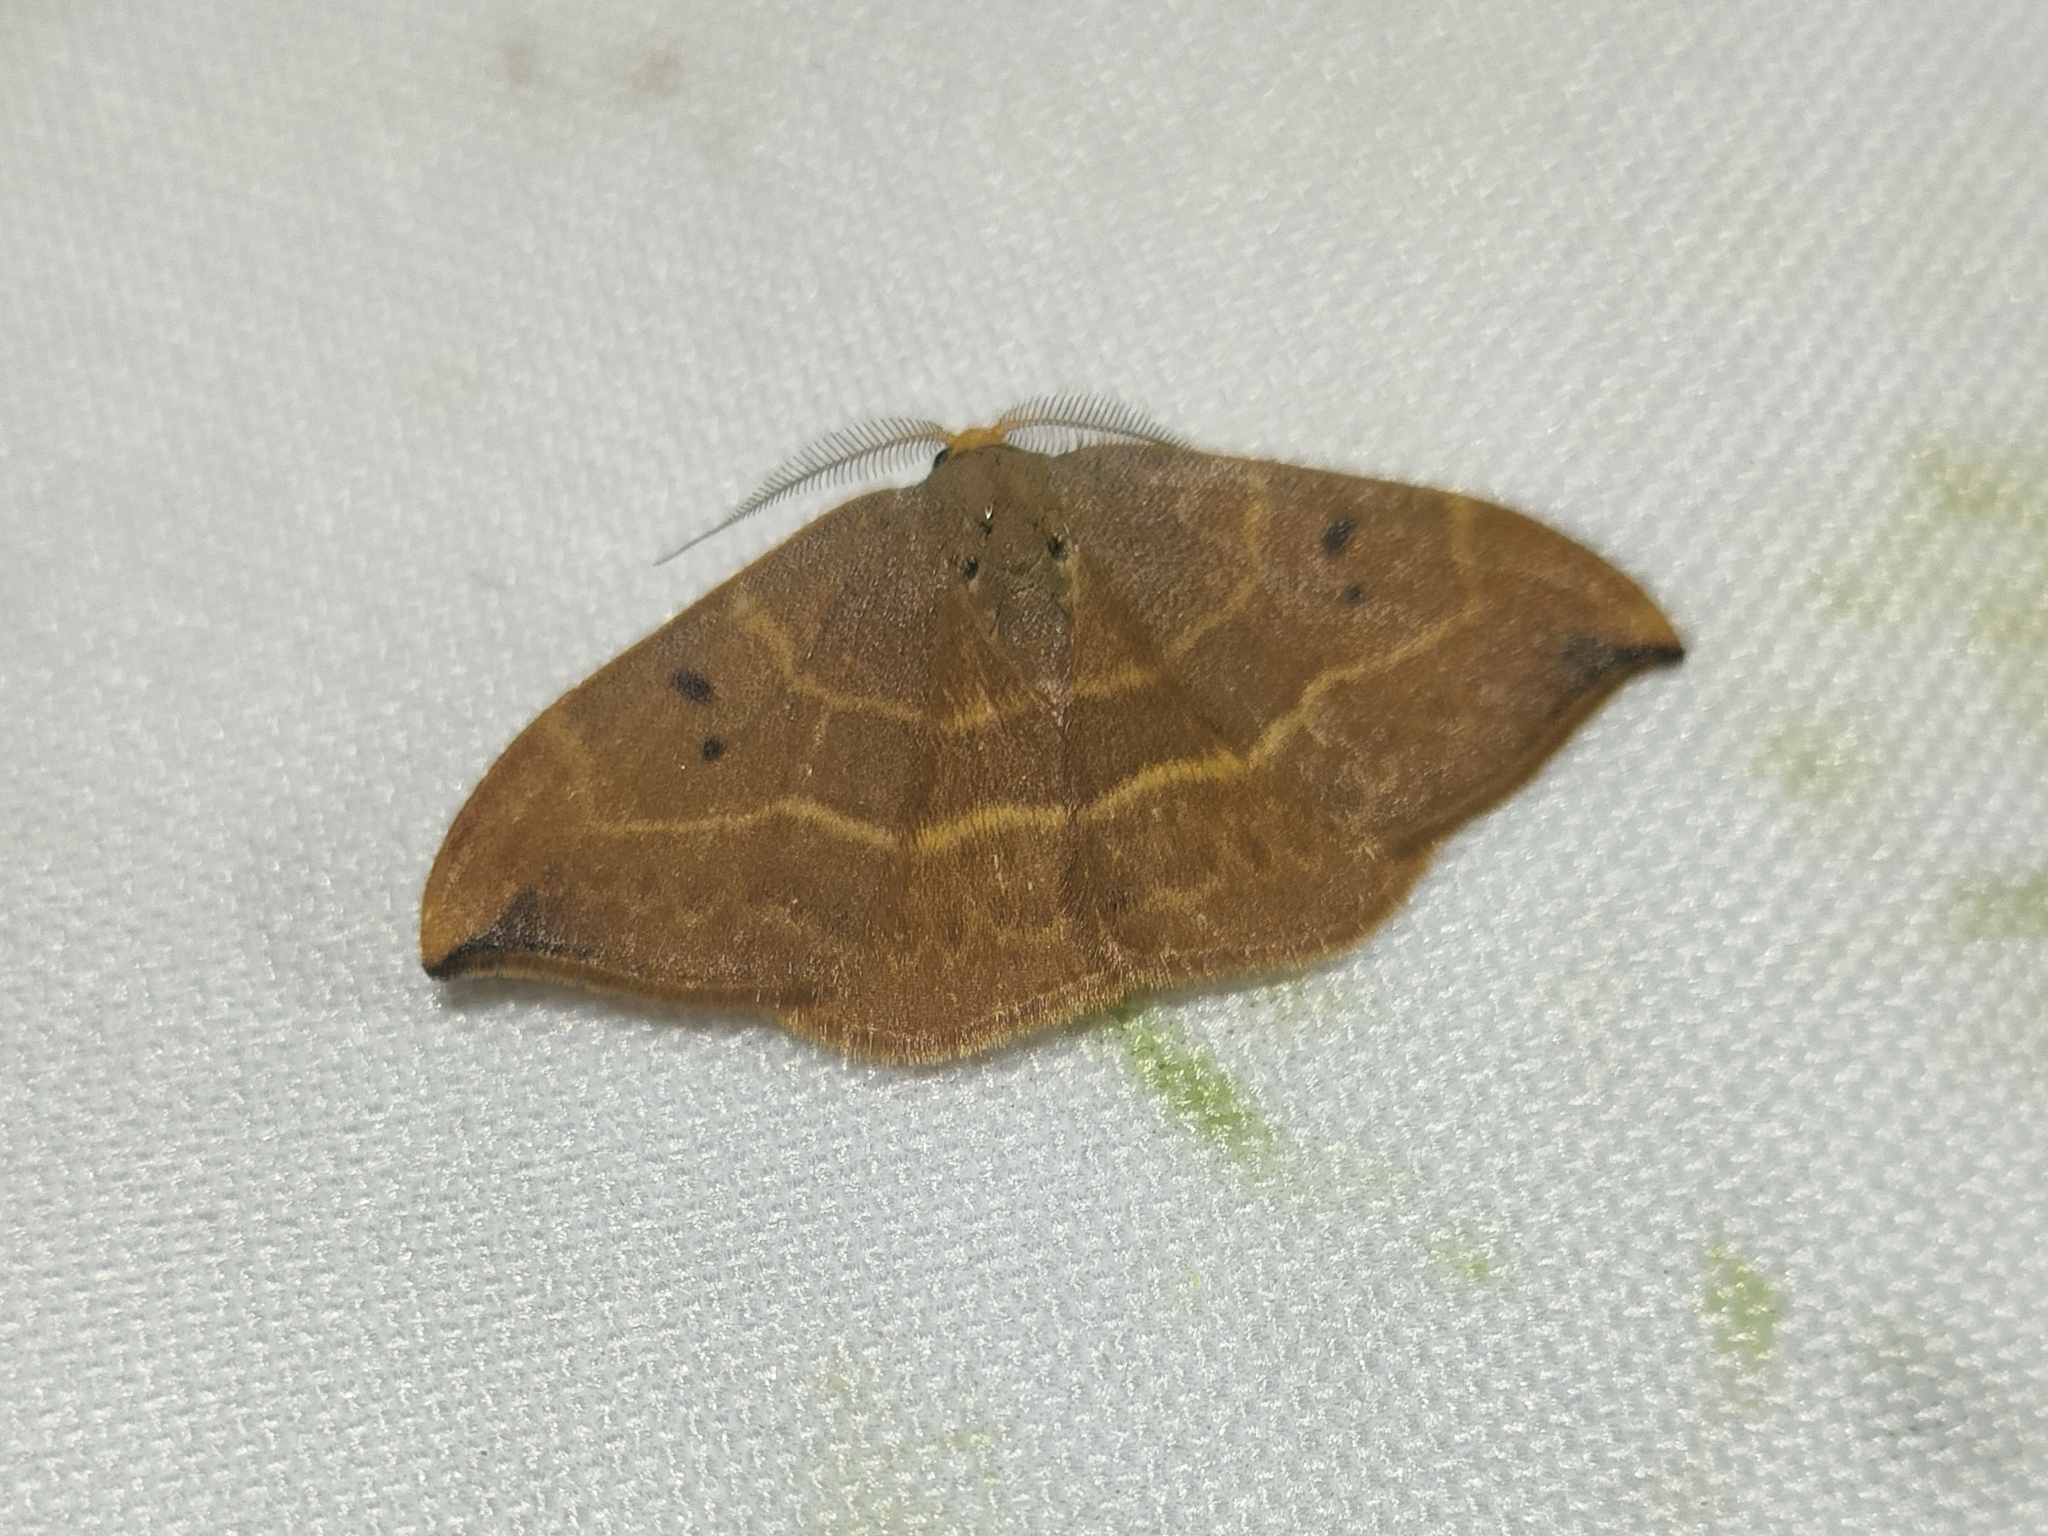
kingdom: Animalia
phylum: Arthropoda
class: Insecta
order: Lepidoptera
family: Drepanidae
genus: Watsonalla
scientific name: Watsonalla binaria
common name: Oak hook-tip
